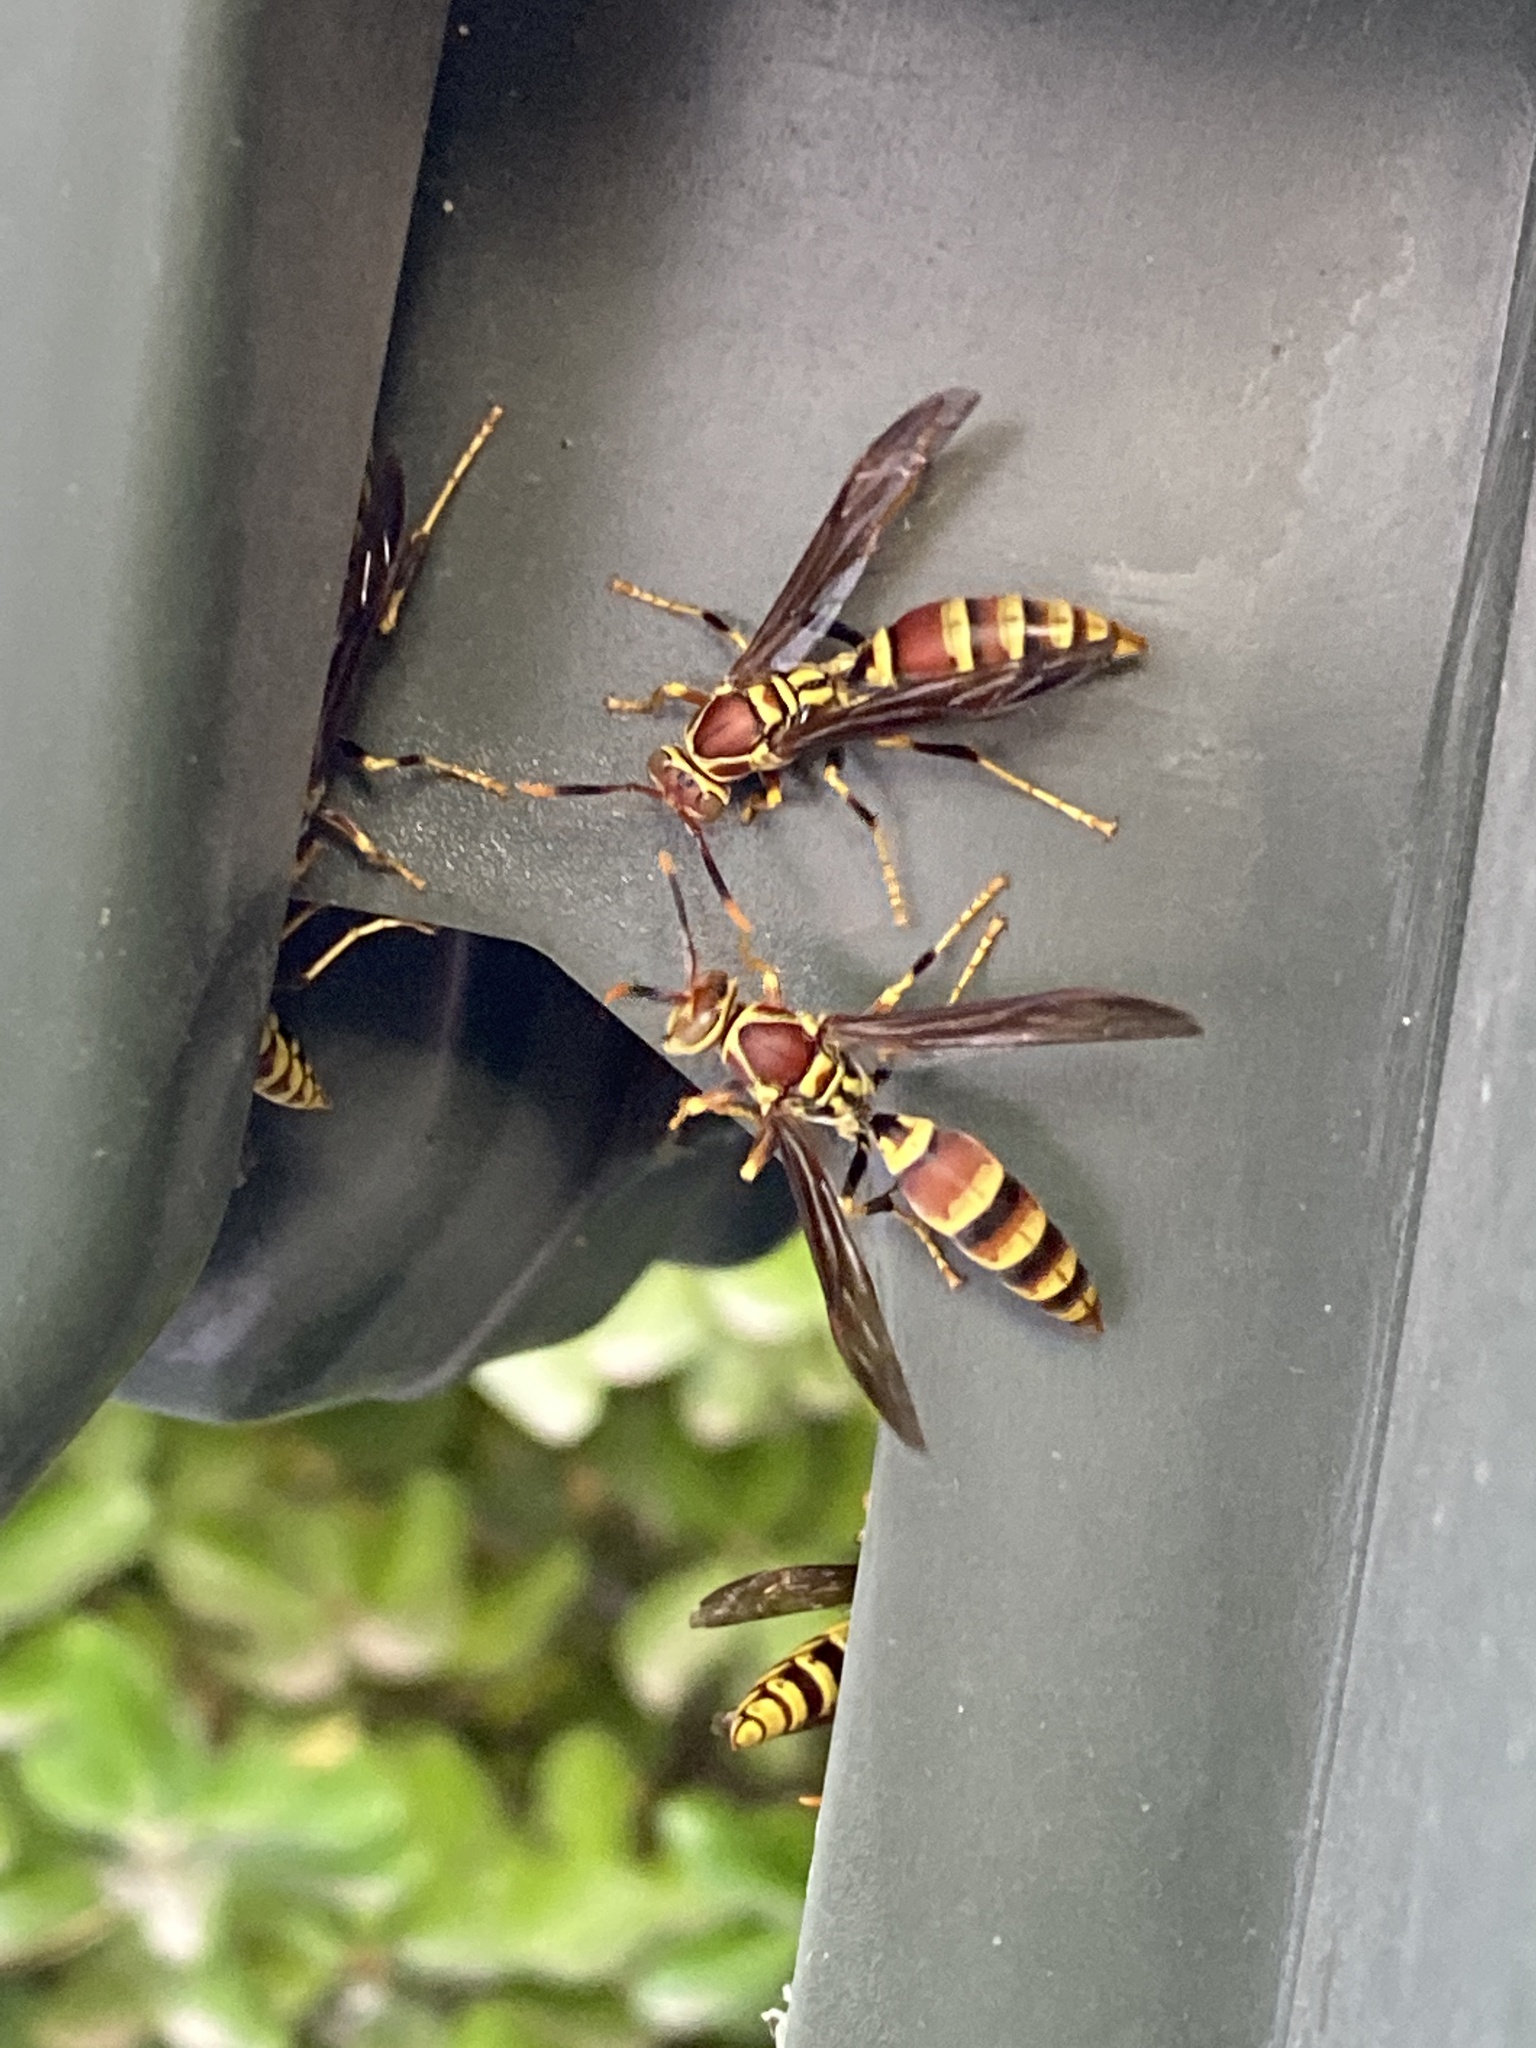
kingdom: Animalia
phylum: Arthropoda
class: Insecta
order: Hymenoptera
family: Eumenidae
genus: Polistes
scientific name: Polistes exclamans
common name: Paper wasp
